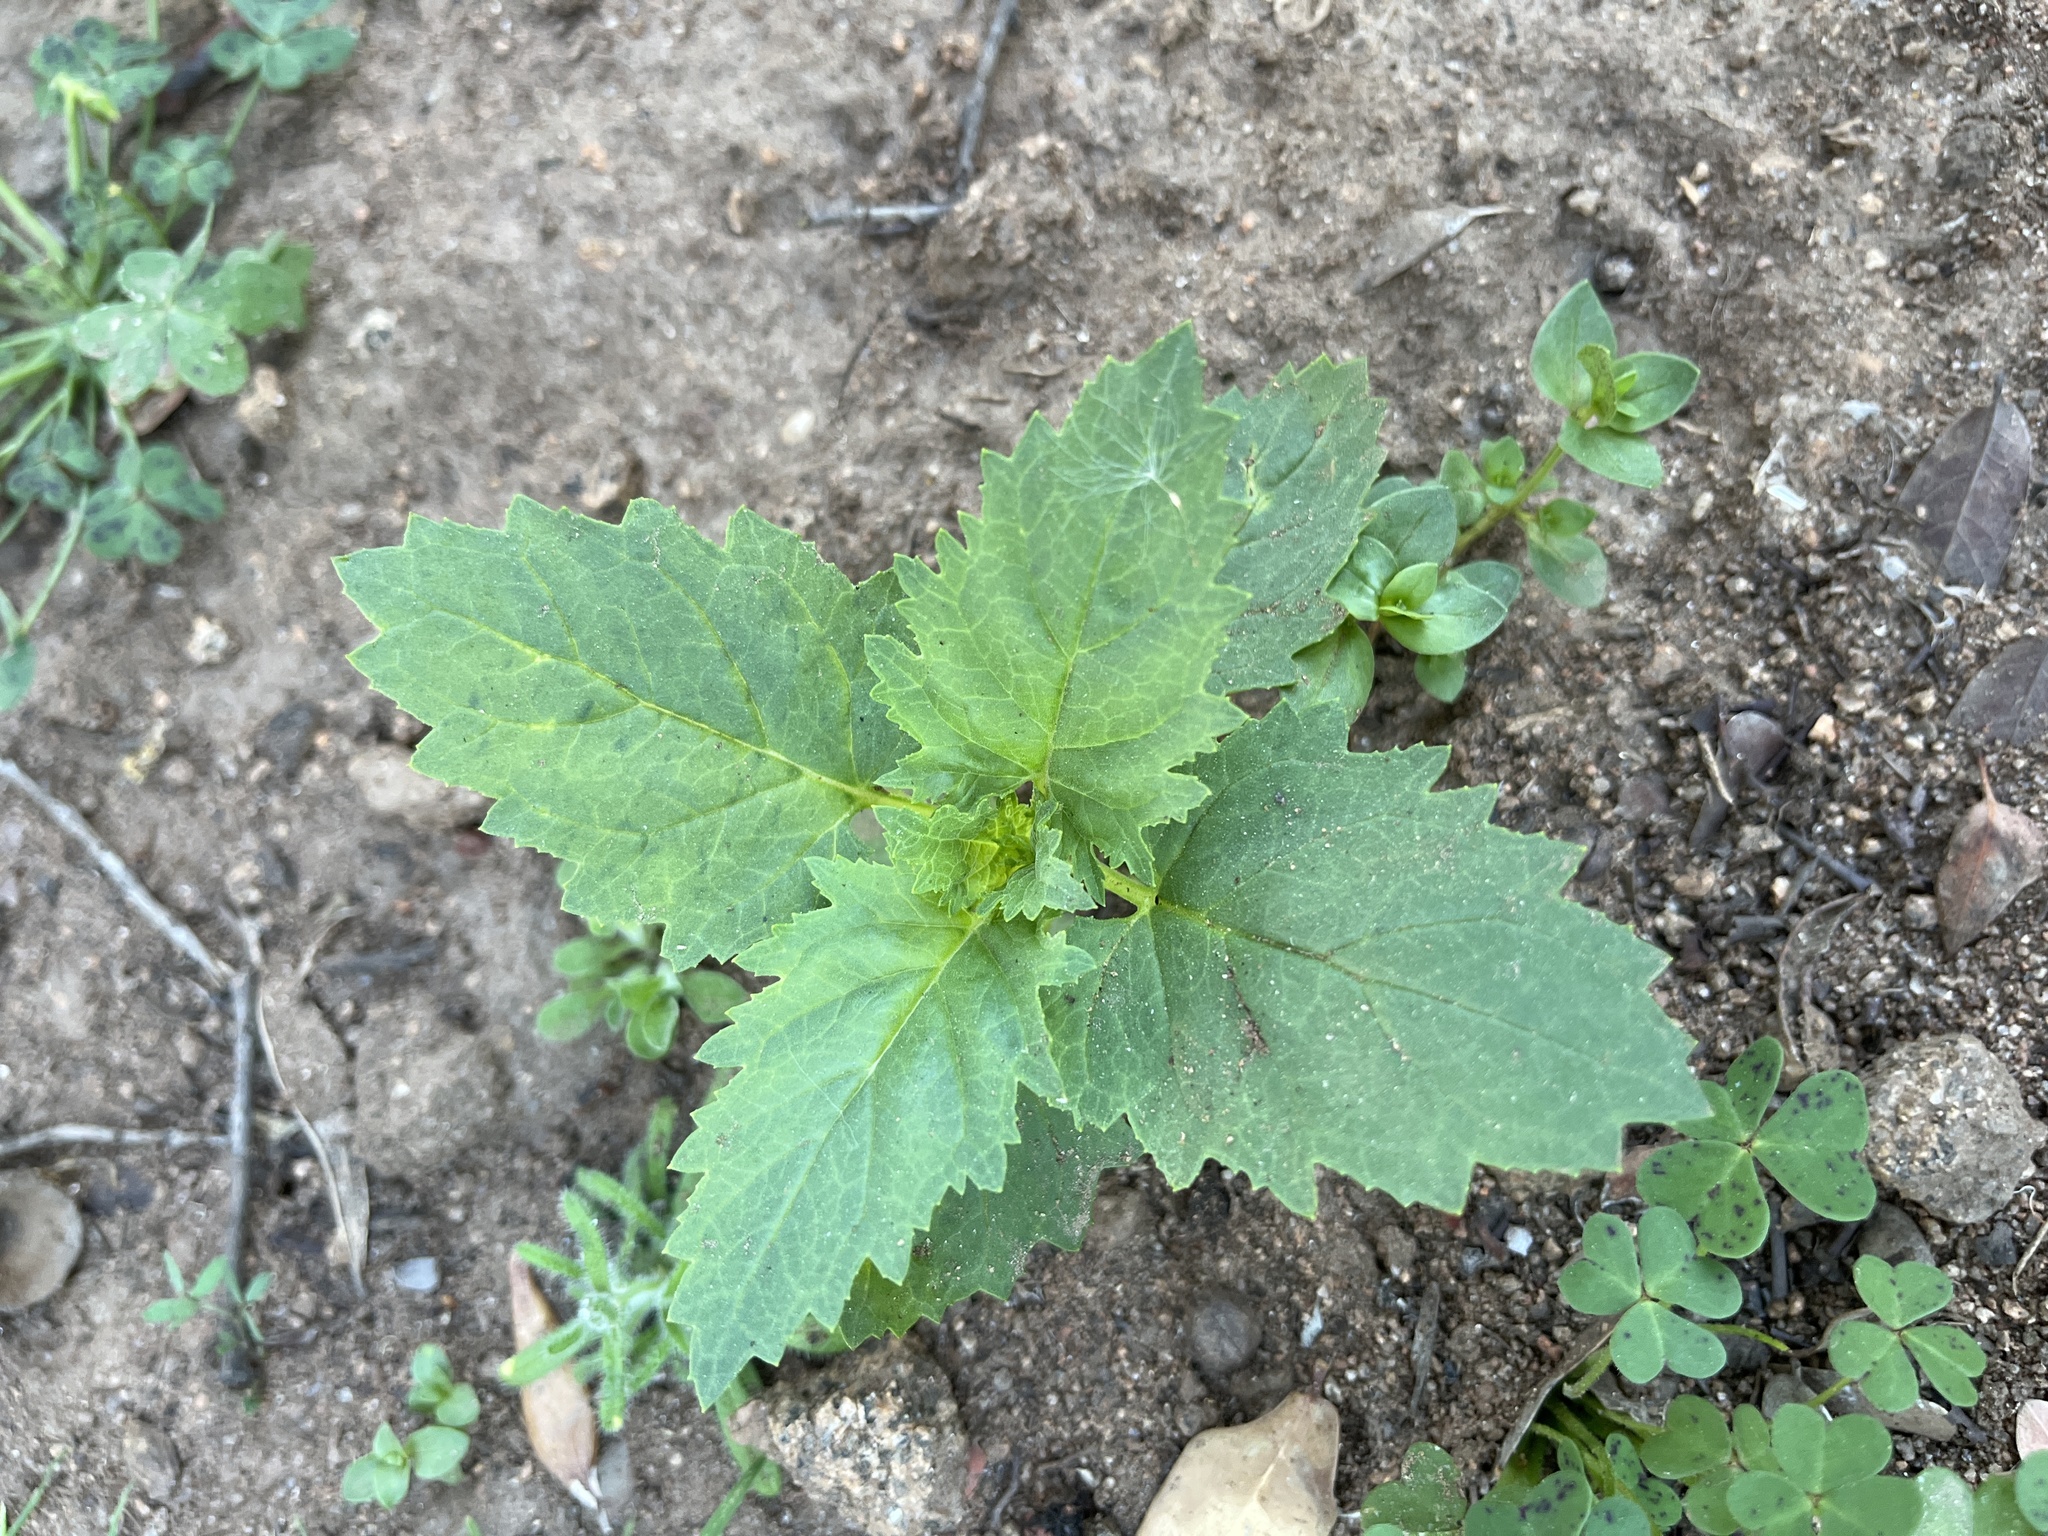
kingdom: Plantae
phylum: Tracheophyta
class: Magnoliopsida
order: Lamiales
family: Scrophulariaceae
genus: Scrophularia
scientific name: Scrophularia californica
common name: California figwort
